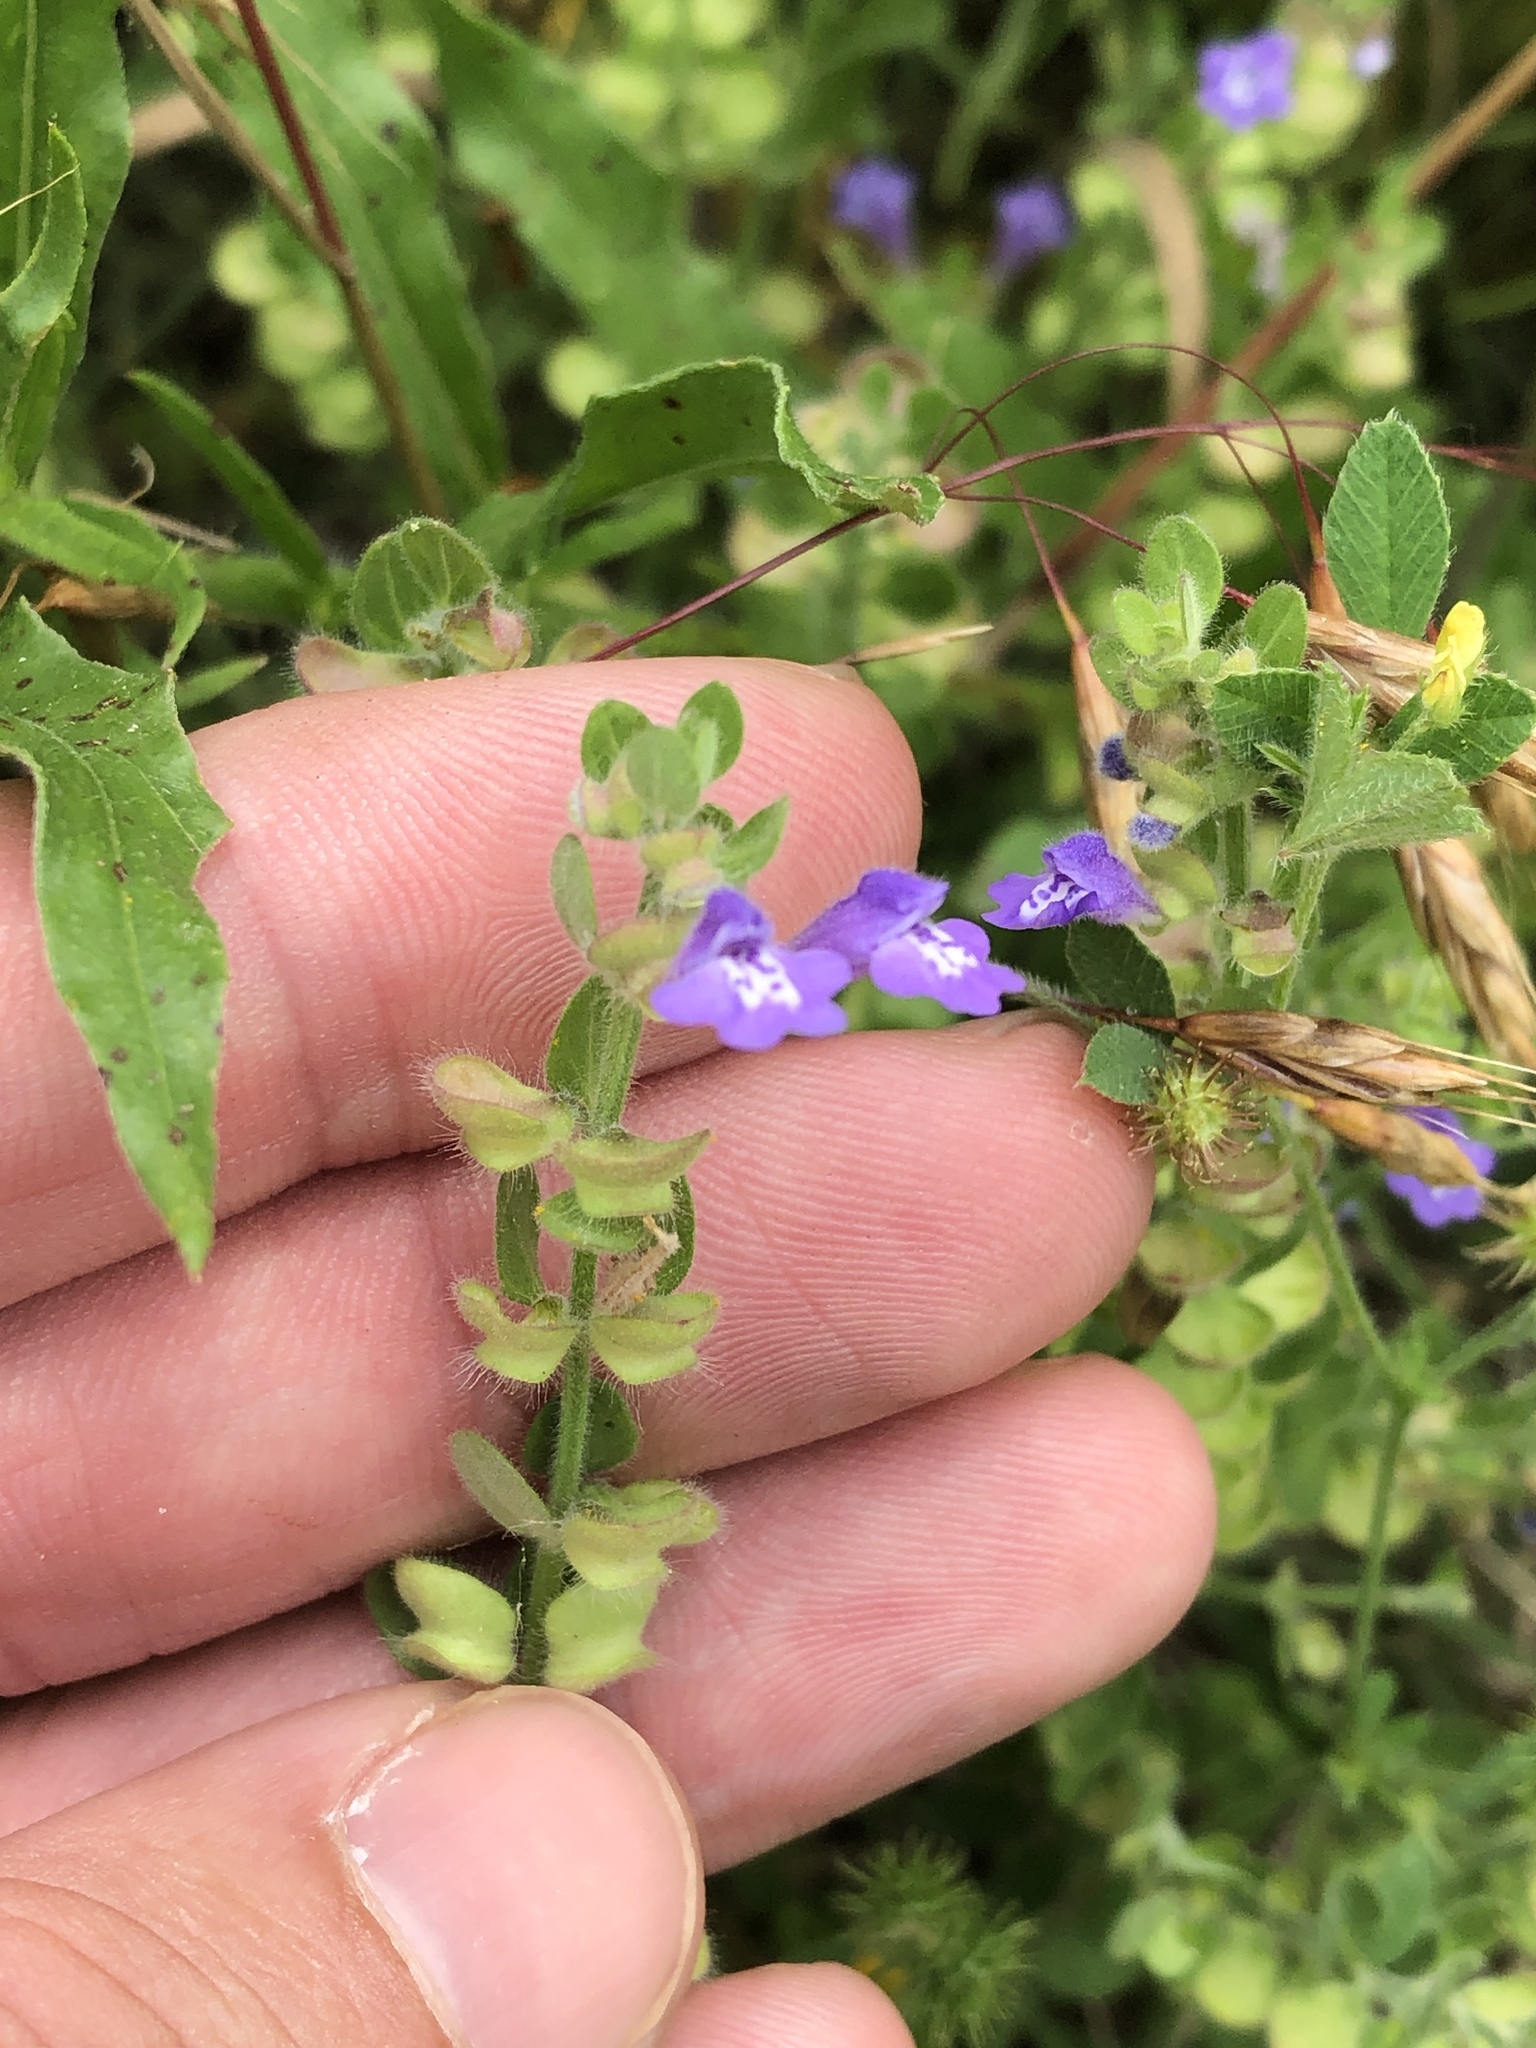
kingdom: Plantae
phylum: Tracheophyta
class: Magnoliopsida
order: Lamiales
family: Lamiaceae
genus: Scutellaria
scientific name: Scutellaria drummondii
